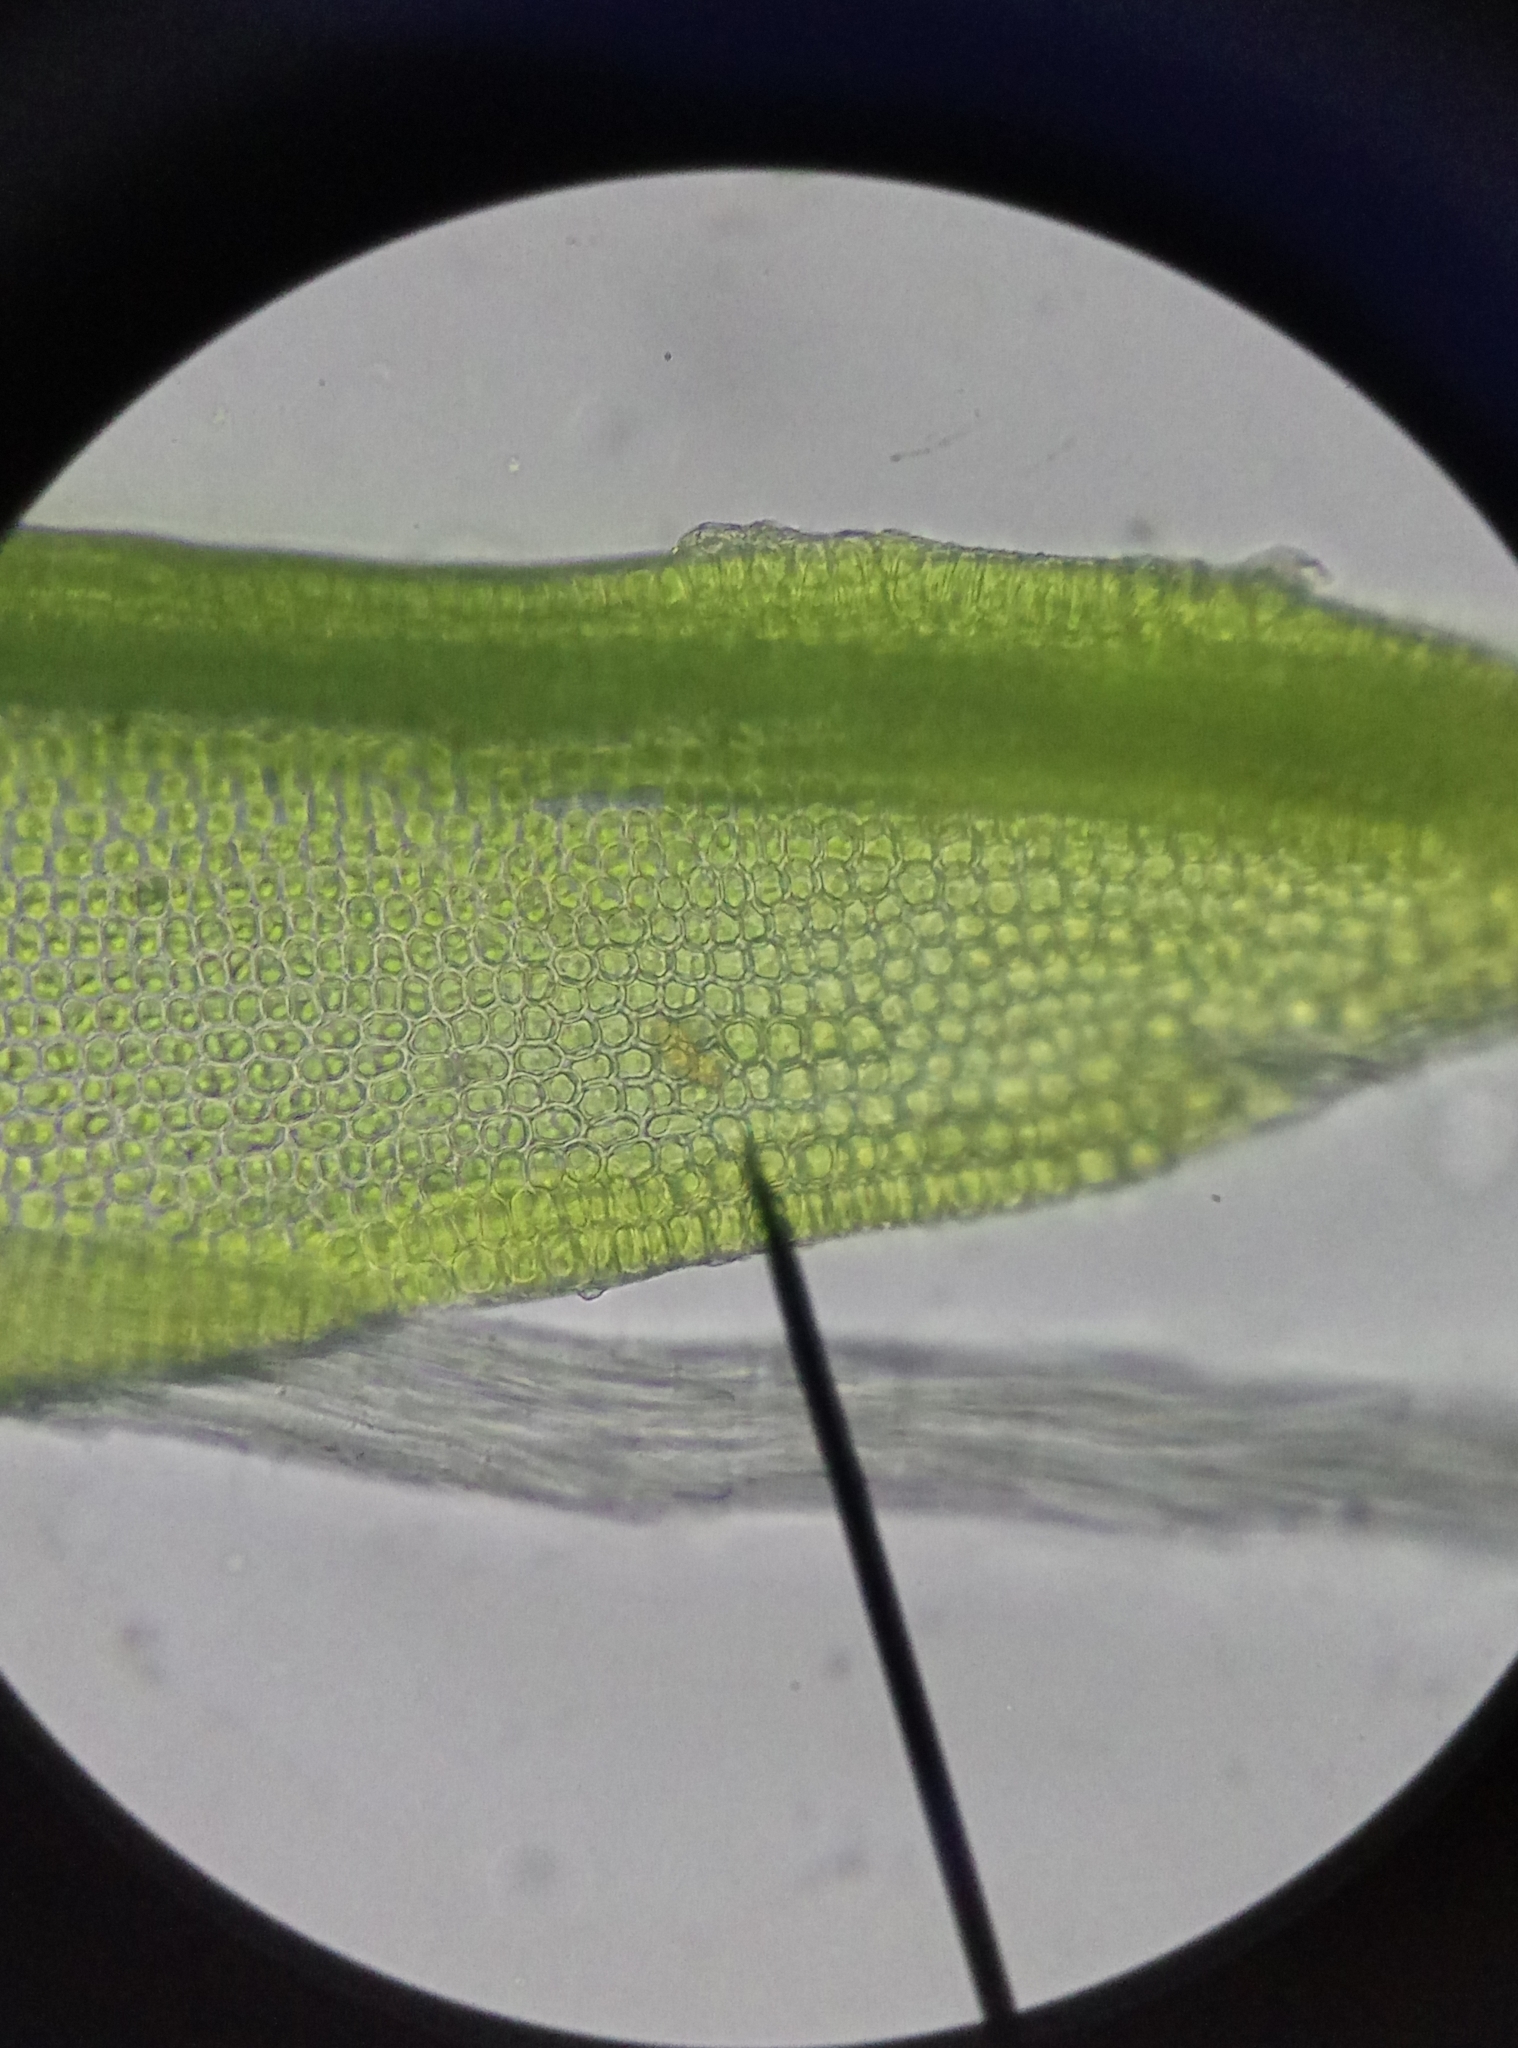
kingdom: Plantae
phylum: Bryophyta
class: Bryopsida
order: Grimmiales
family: Grimmiaceae
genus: Grimmia
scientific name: Grimmia pulvinata
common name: Grey-cushioned grimmia
